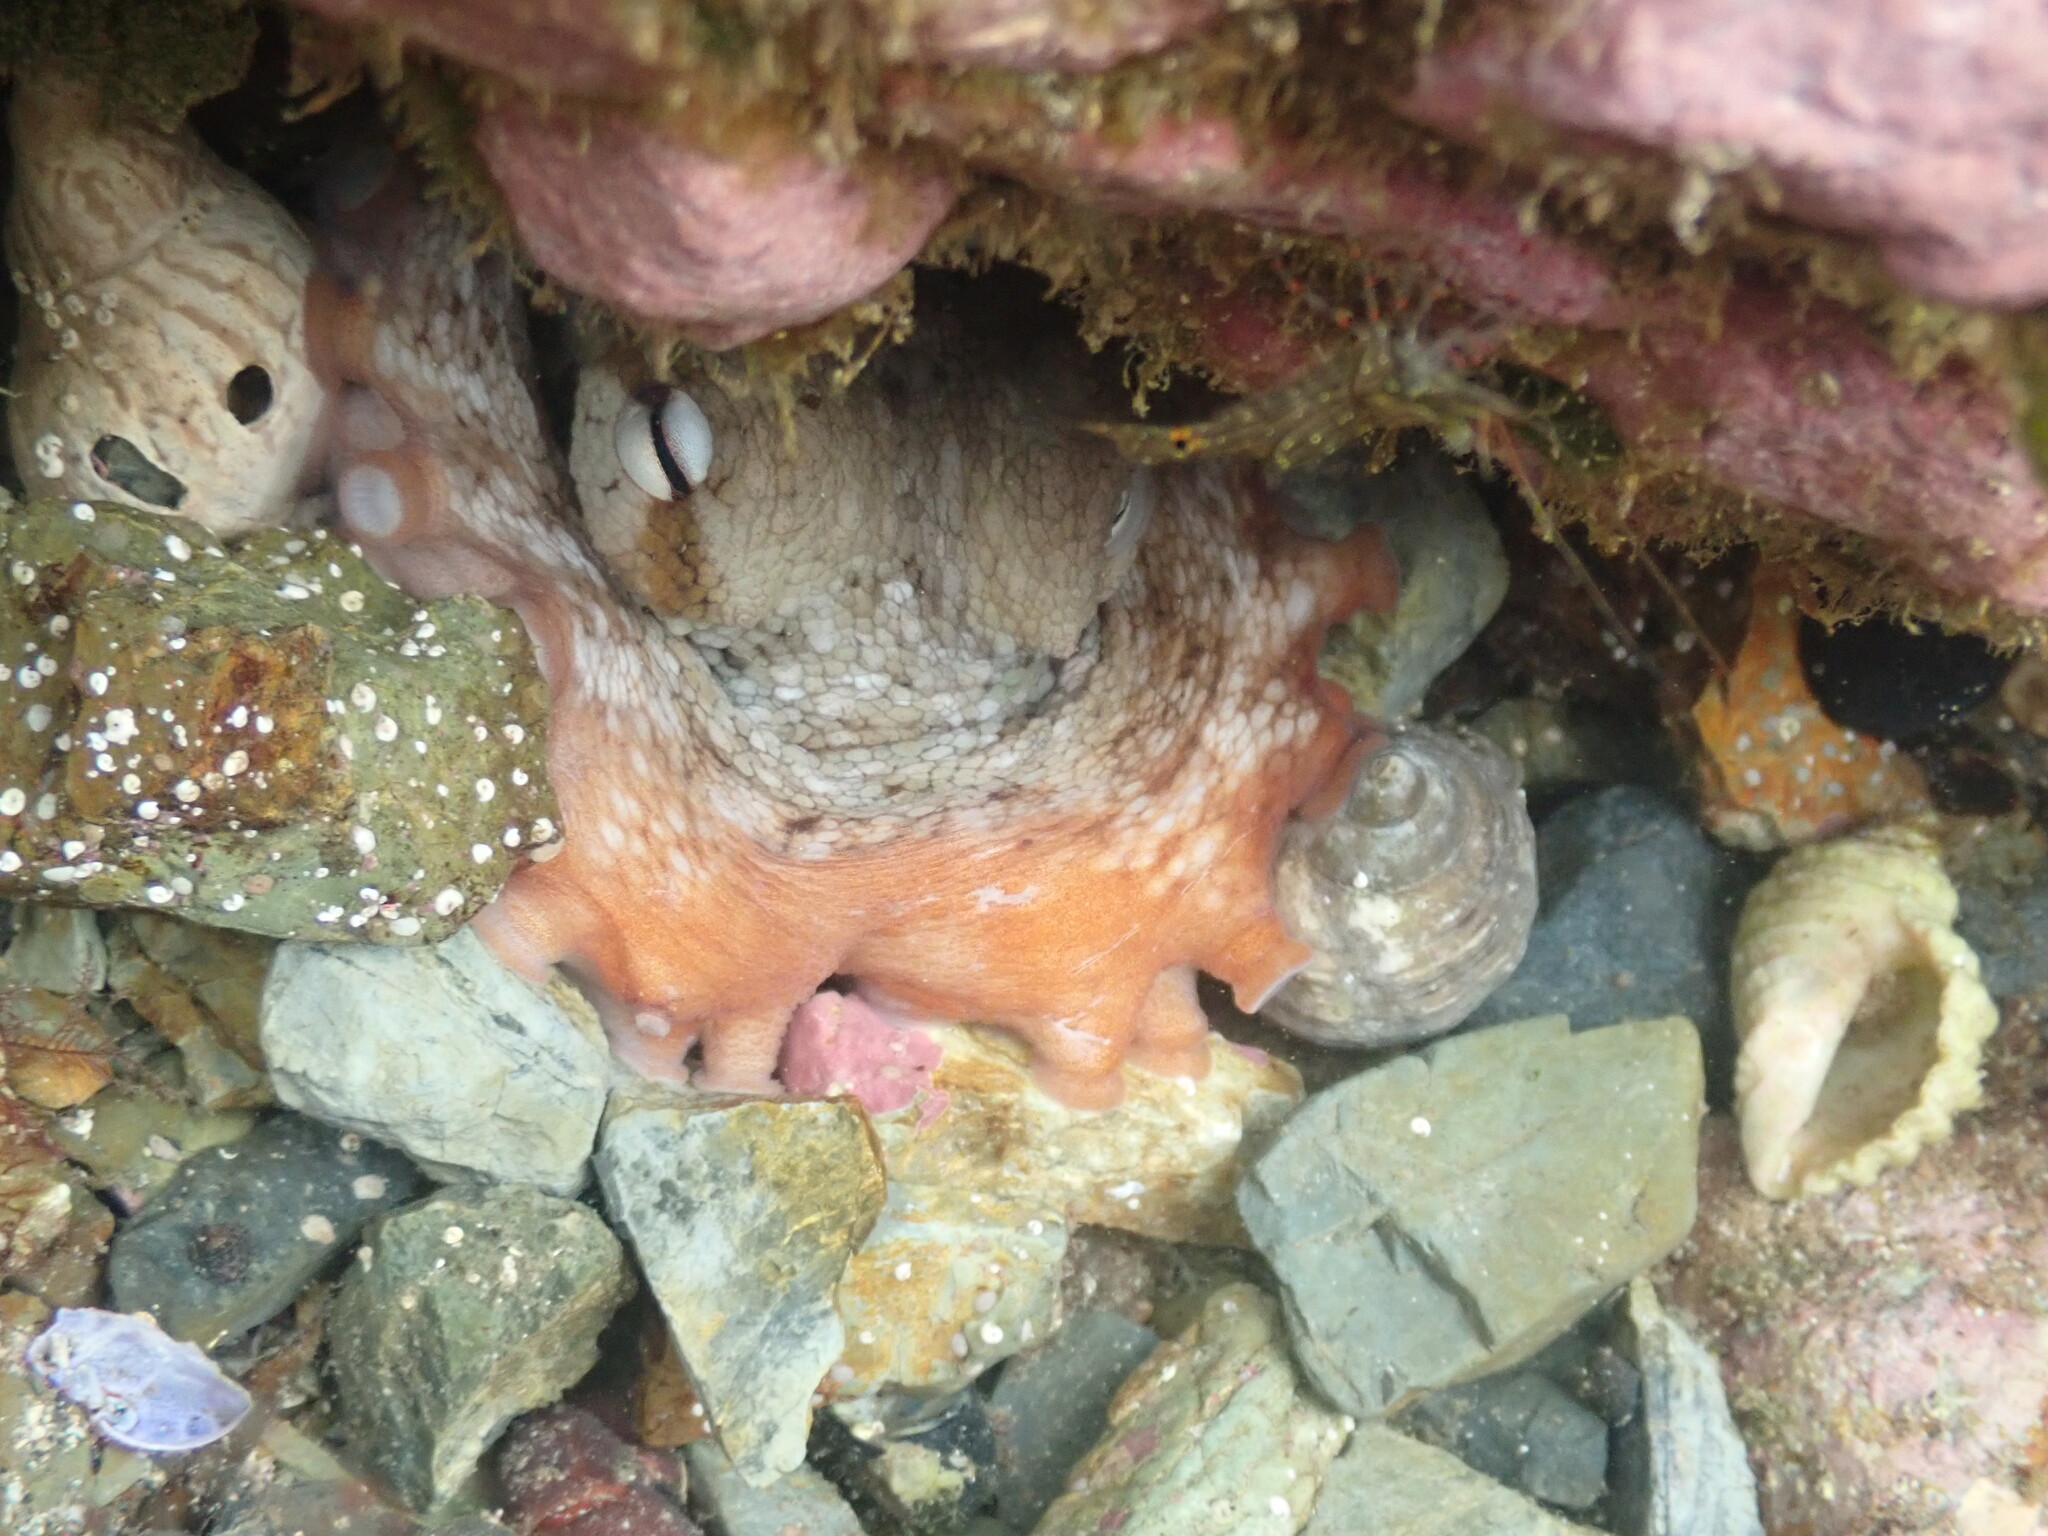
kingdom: Animalia
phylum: Mollusca
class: Cephalopoda
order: Octopoda
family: Octopodidae
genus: Octopus
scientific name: Octopus tetricus
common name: Sydney octopus
